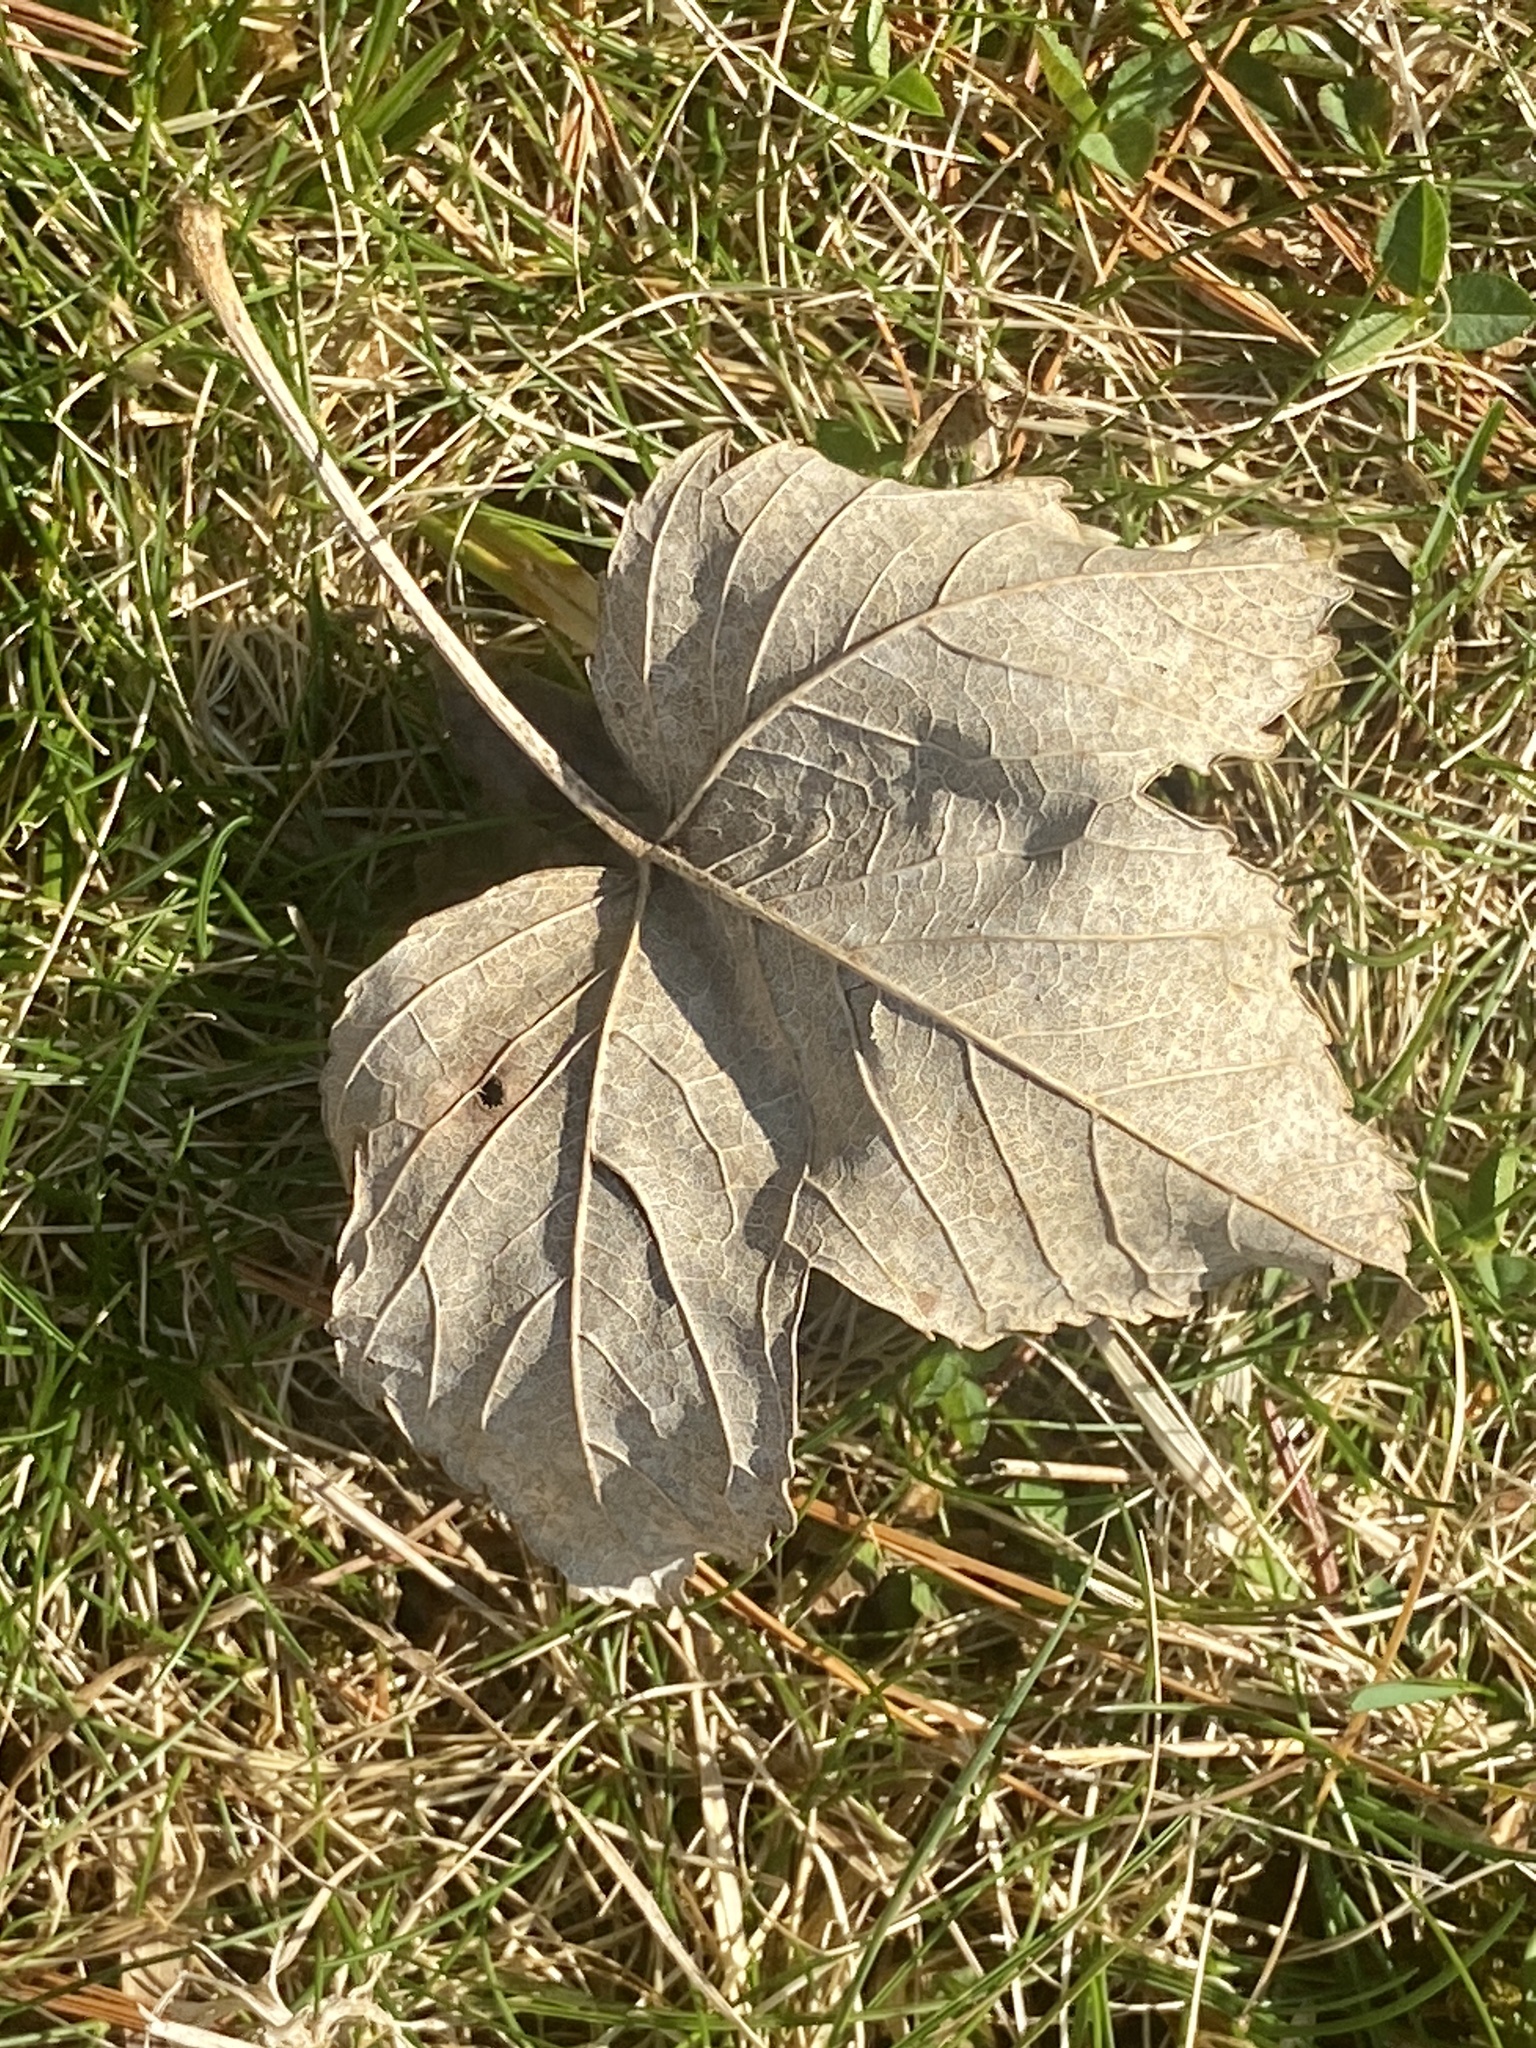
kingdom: Plantae
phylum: Tracheophyta
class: Magnoliopsida
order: Sapindales
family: Sapindaceae
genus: Acer
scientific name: Acer pseudoplatanus
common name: Sycamore
